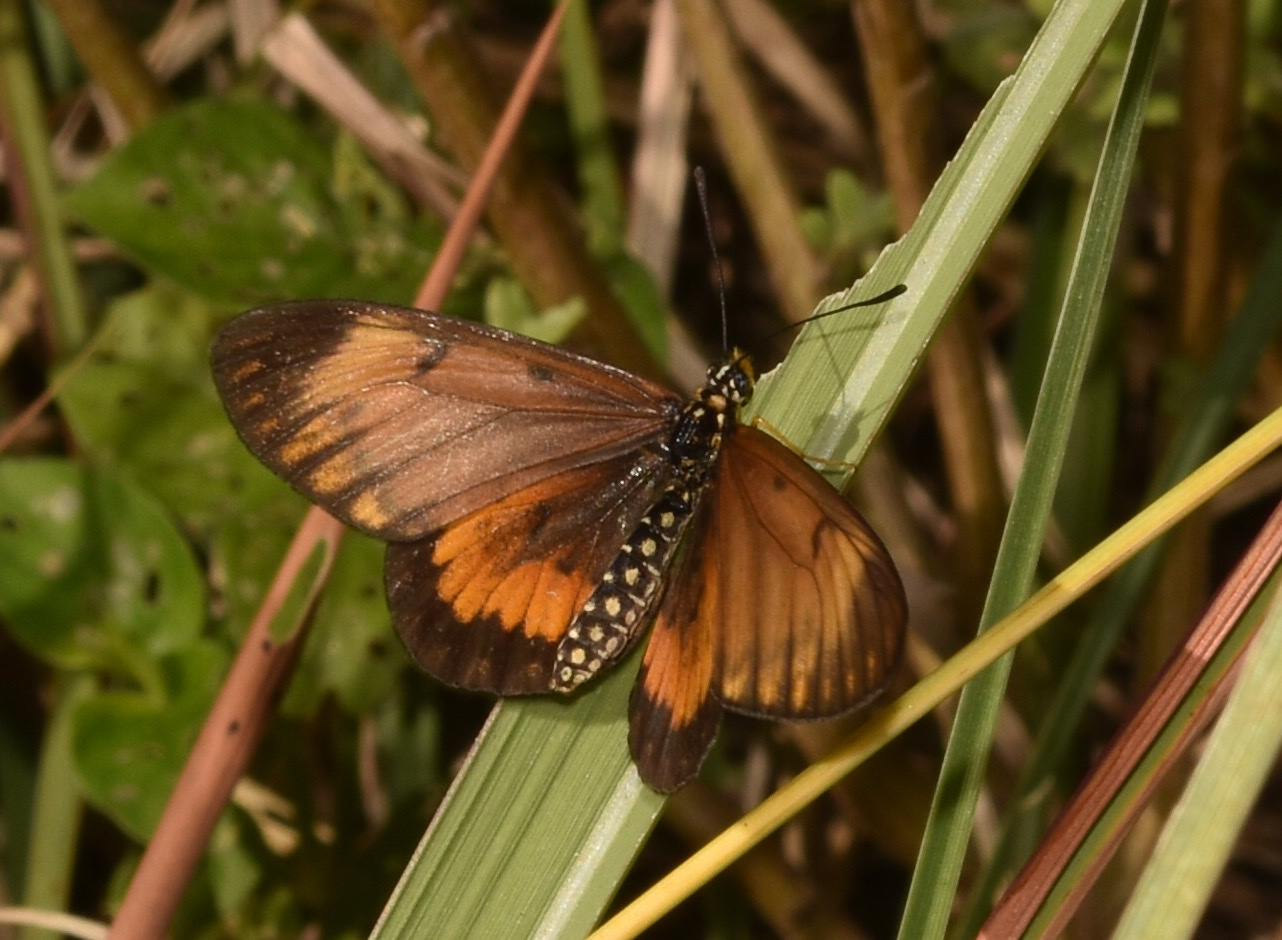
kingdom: Animalia
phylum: Arthropoda
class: Insecta
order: Lepidoptera
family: Nymphalidae
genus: Acraea
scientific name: Acraea Telchinia serena
